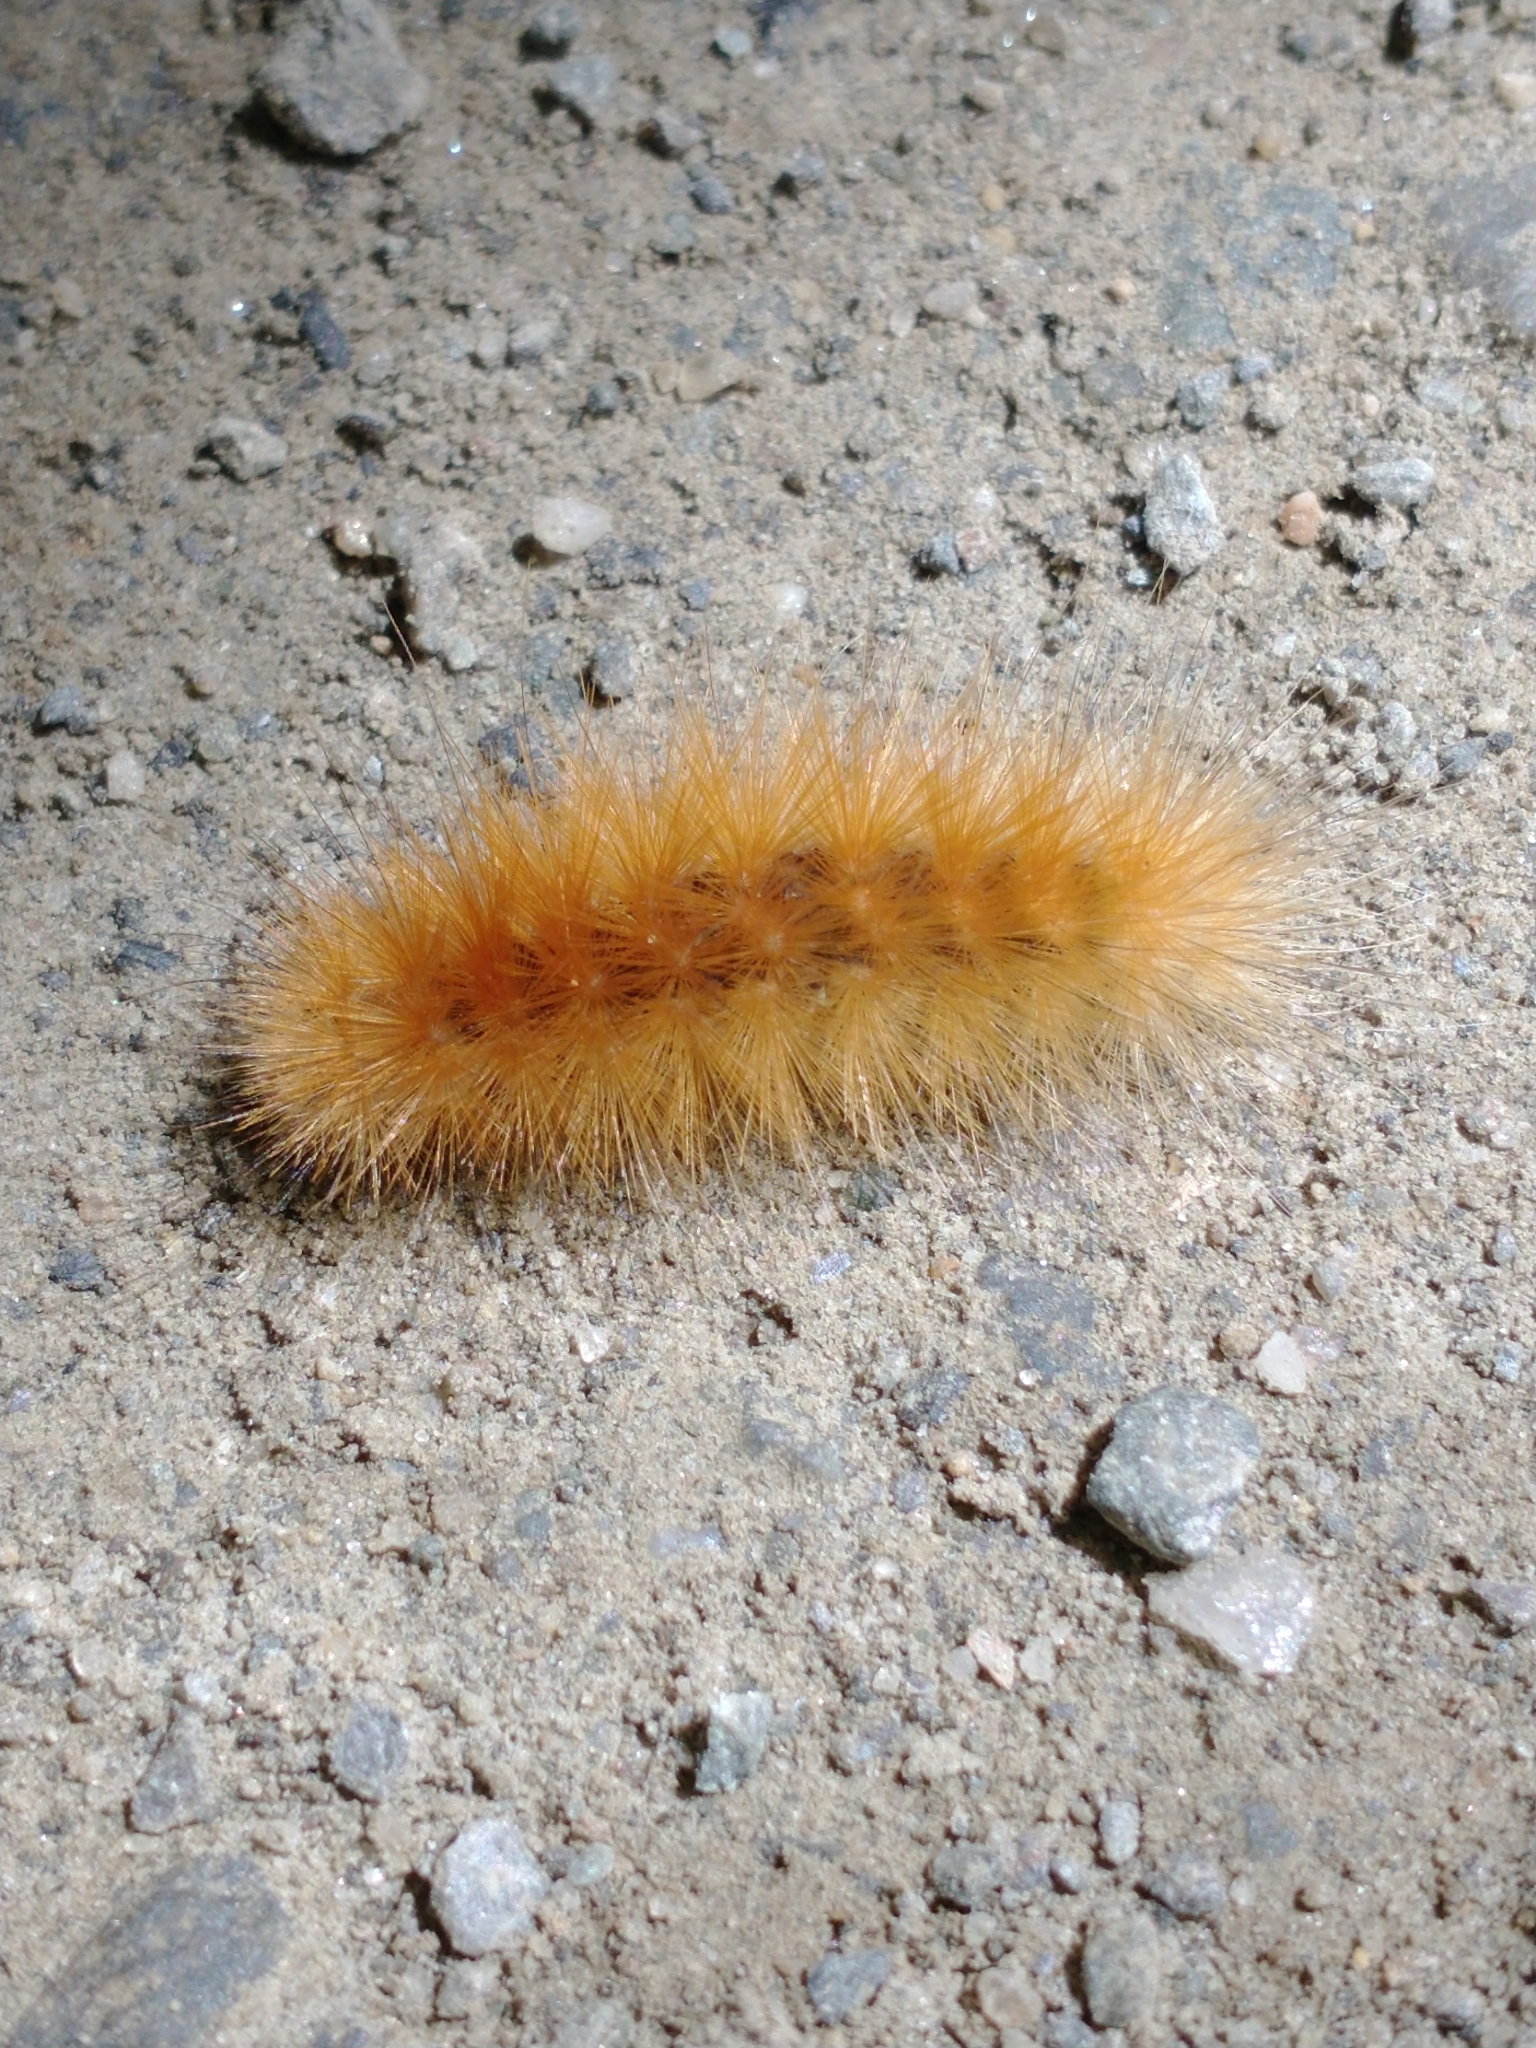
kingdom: Animalia
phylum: Arthropoda
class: Insecta
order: Lepidoptera
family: Erebidae
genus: Spilosoma
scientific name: Spilosoma virginica
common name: Virginia tiger moth
